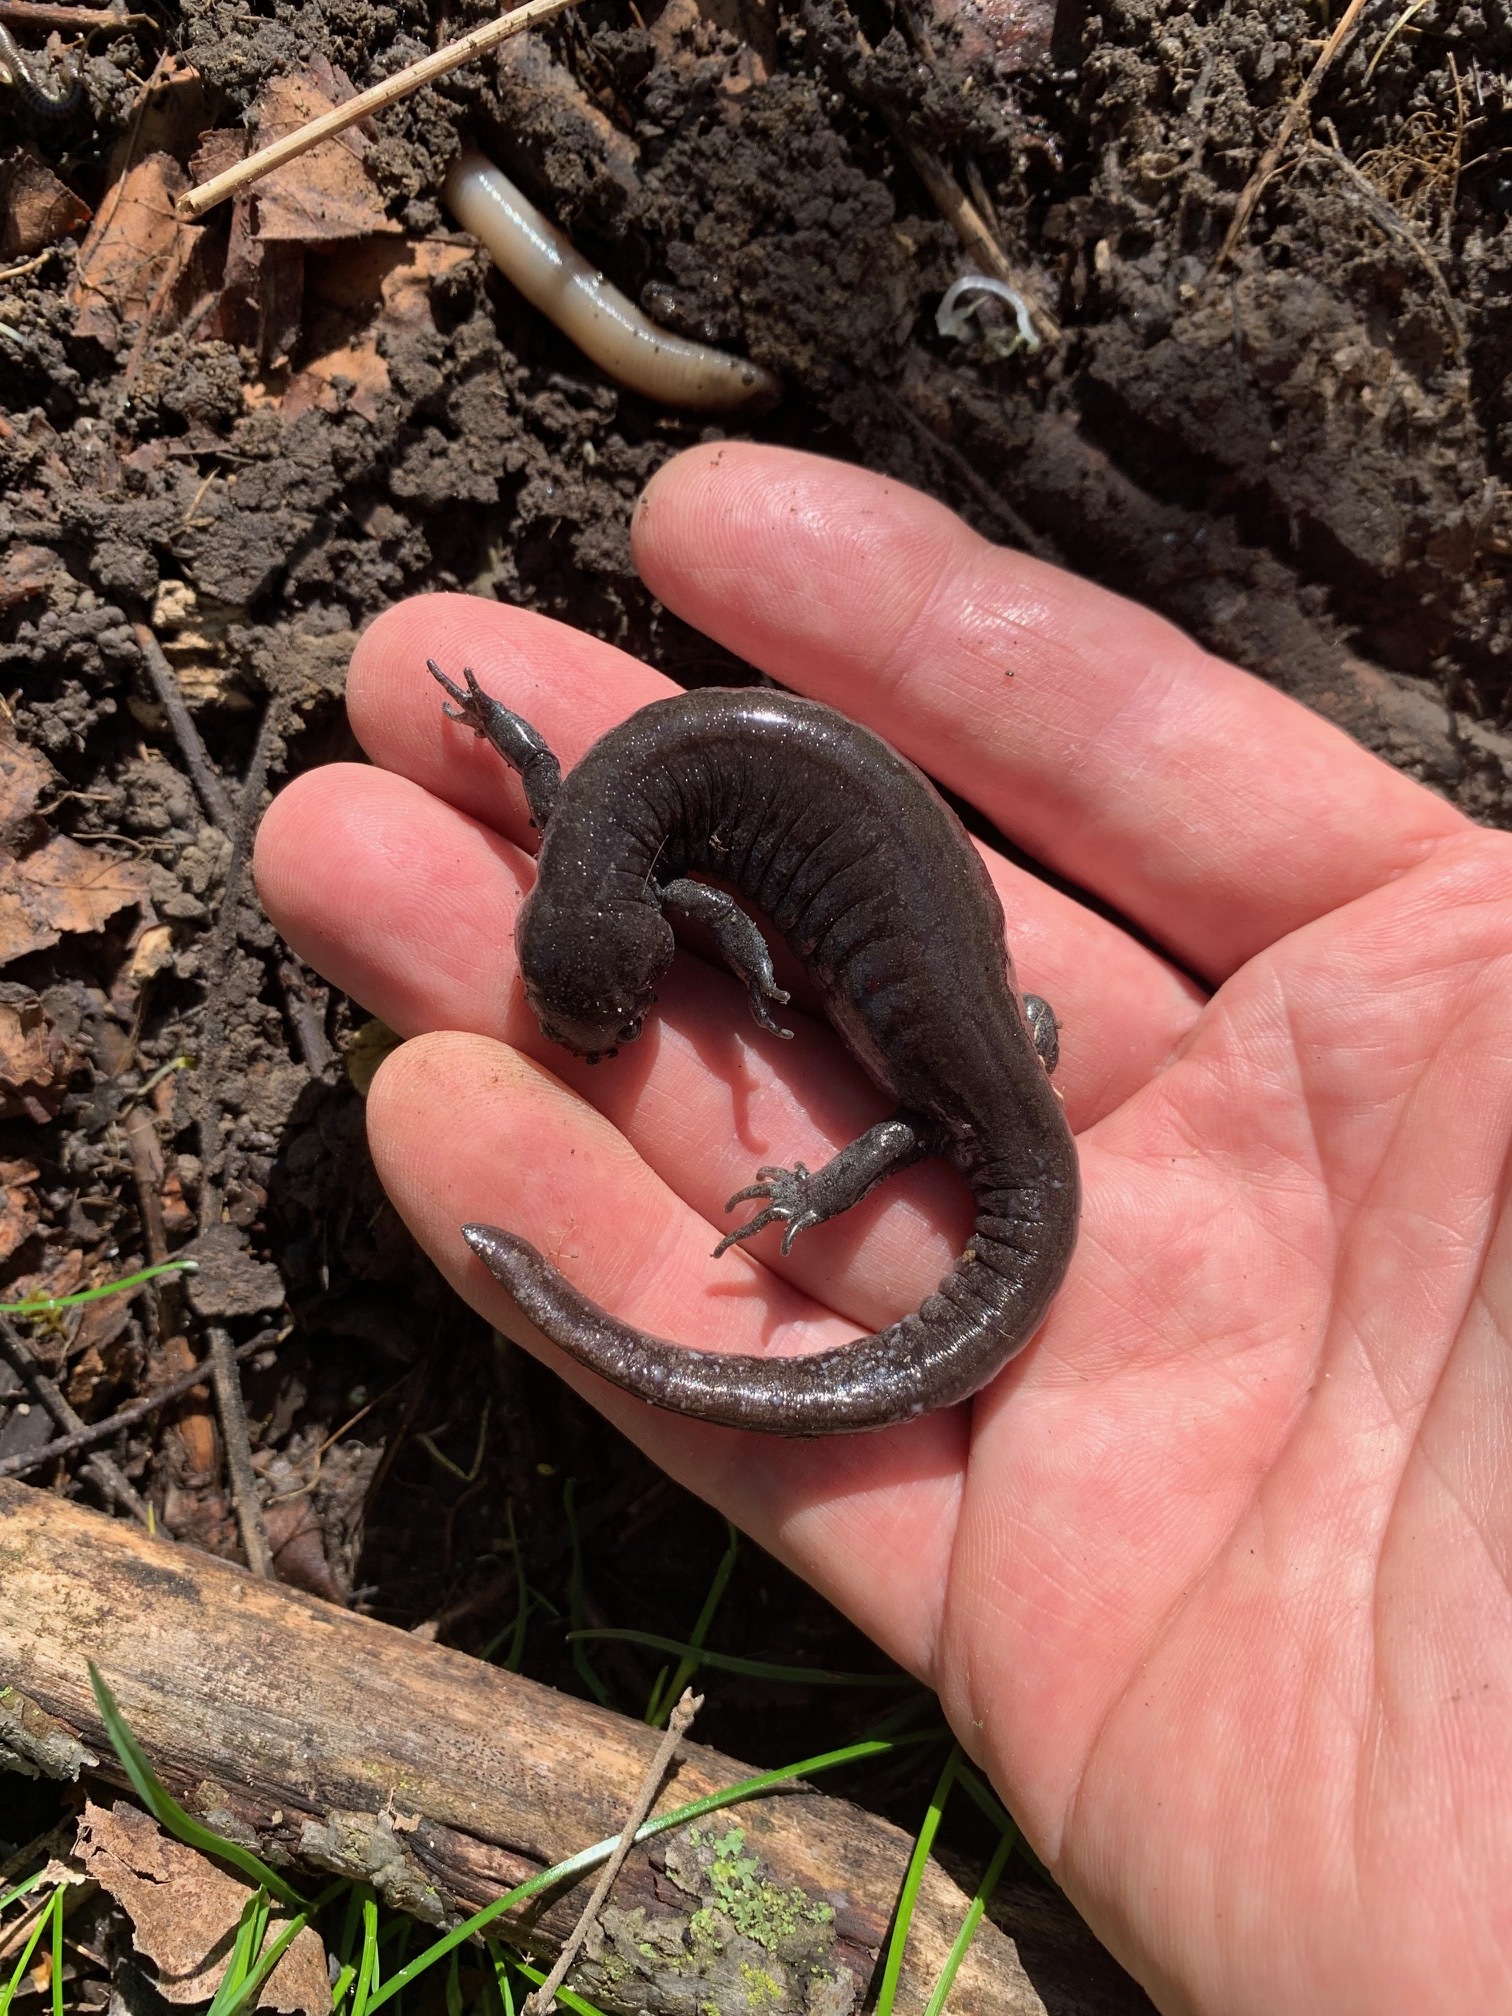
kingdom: Animalia
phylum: Chordata
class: Amphibia
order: Caudata
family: Ambystomatidae
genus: Ambystoma
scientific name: Ambystoma texanum
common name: Small-mouth salamander
